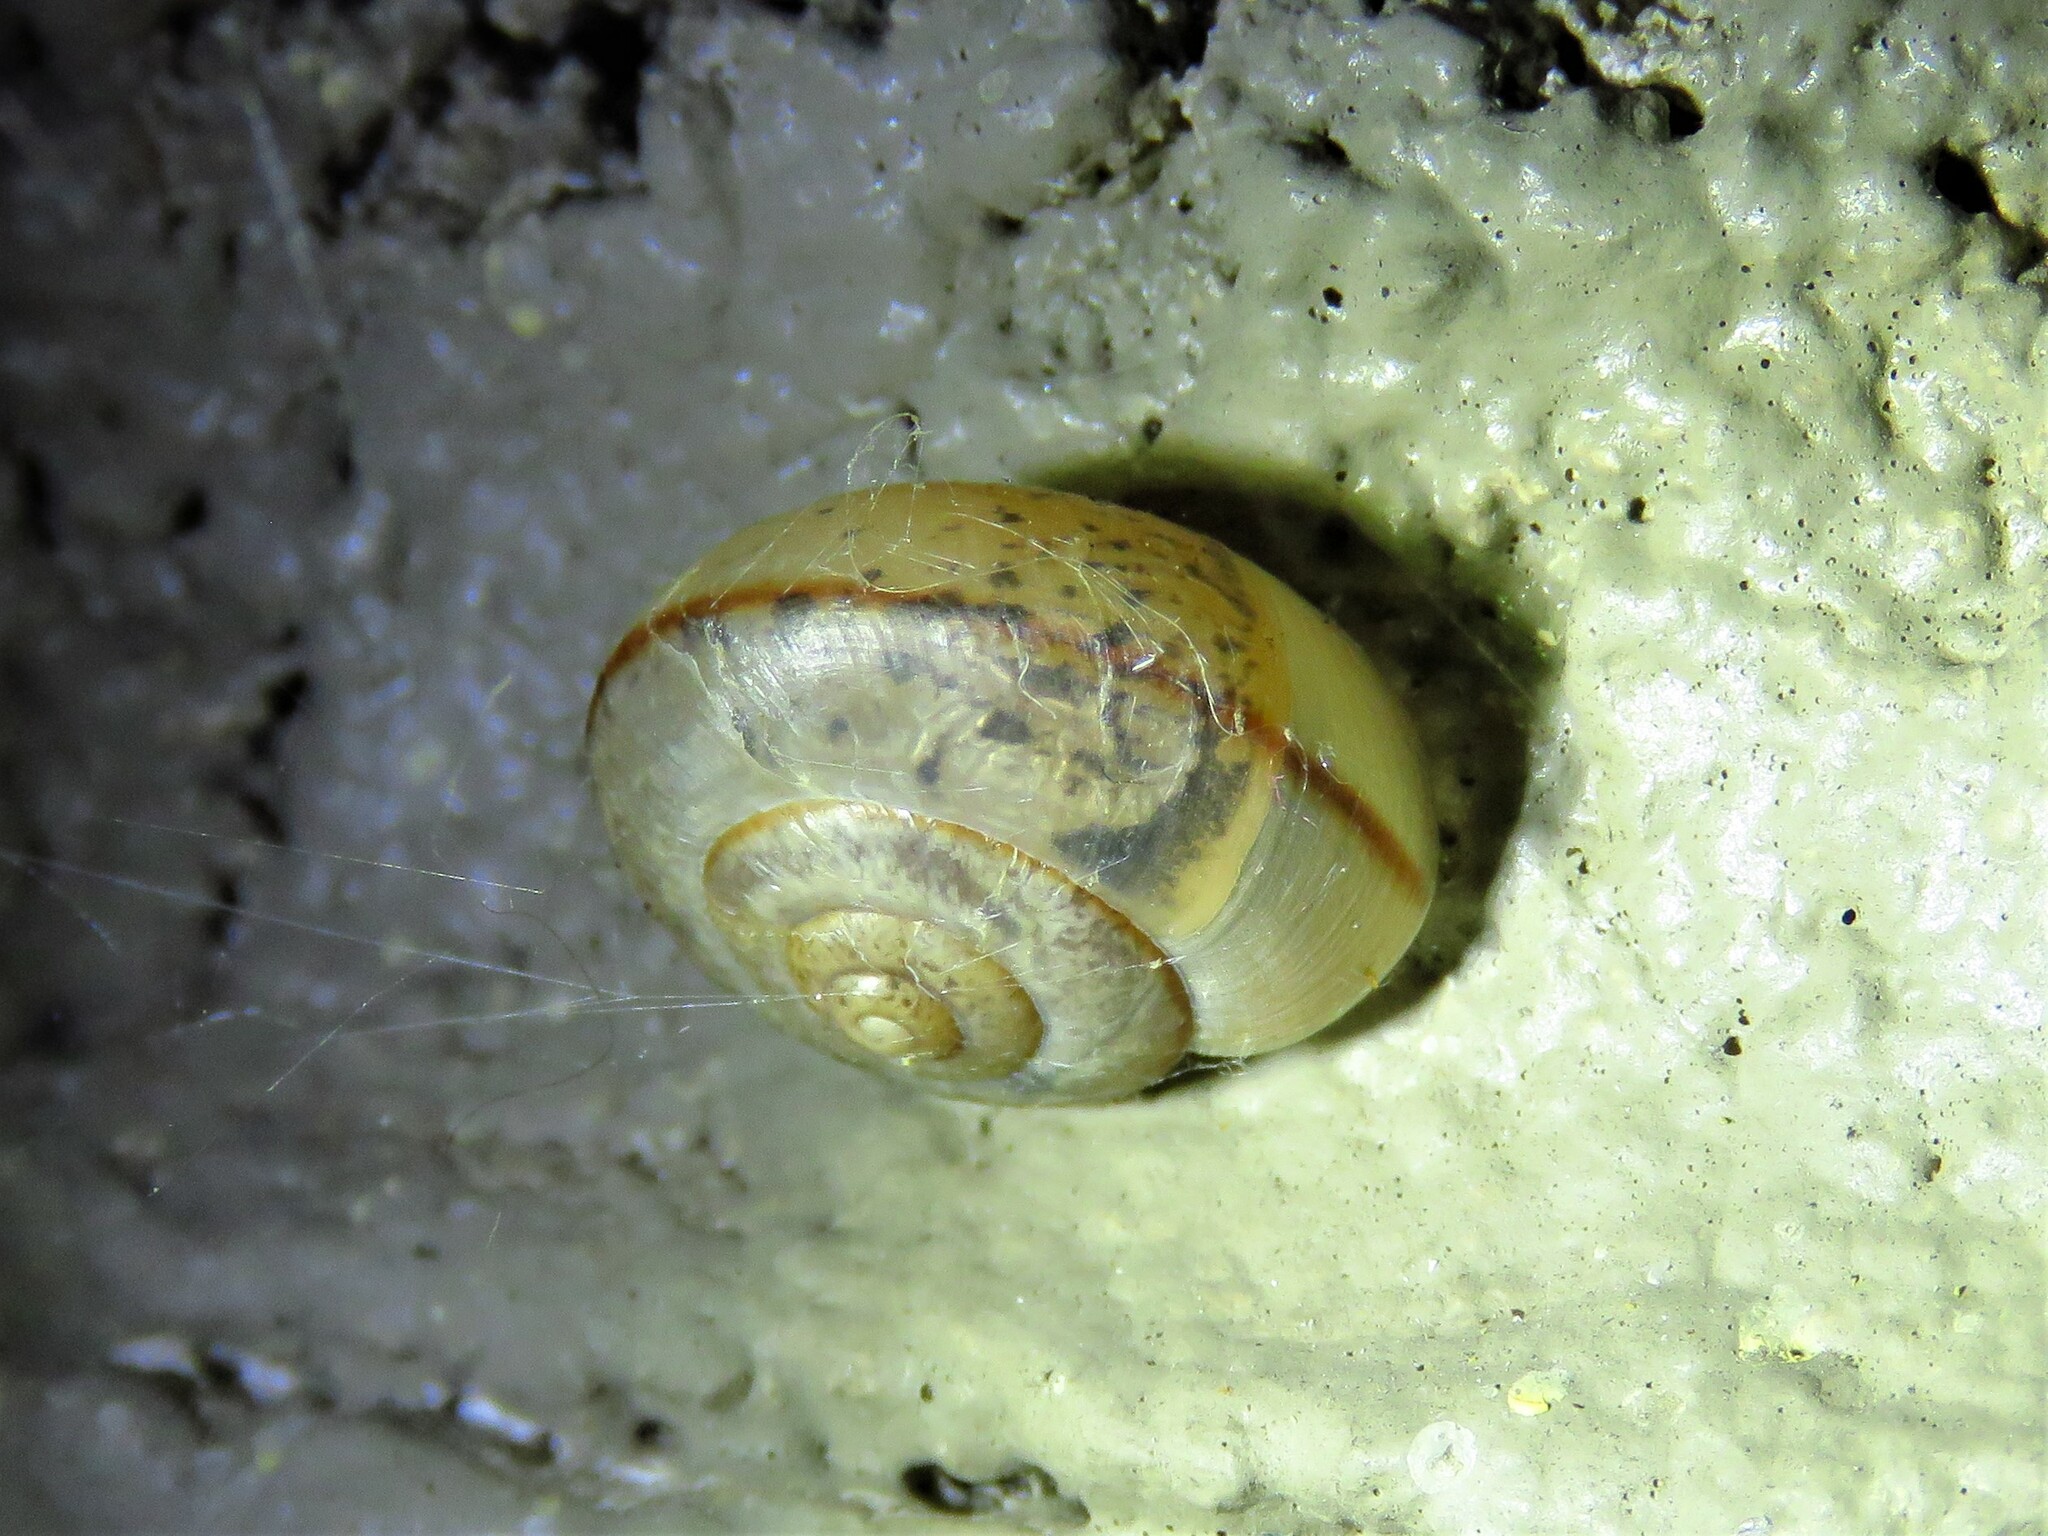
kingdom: Animalia
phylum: Mollusca
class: Gastropoda
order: Stylommatophora
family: Camaenidae
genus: Bradybaena
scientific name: Bradybaena similaris
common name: Asian trampsnail
